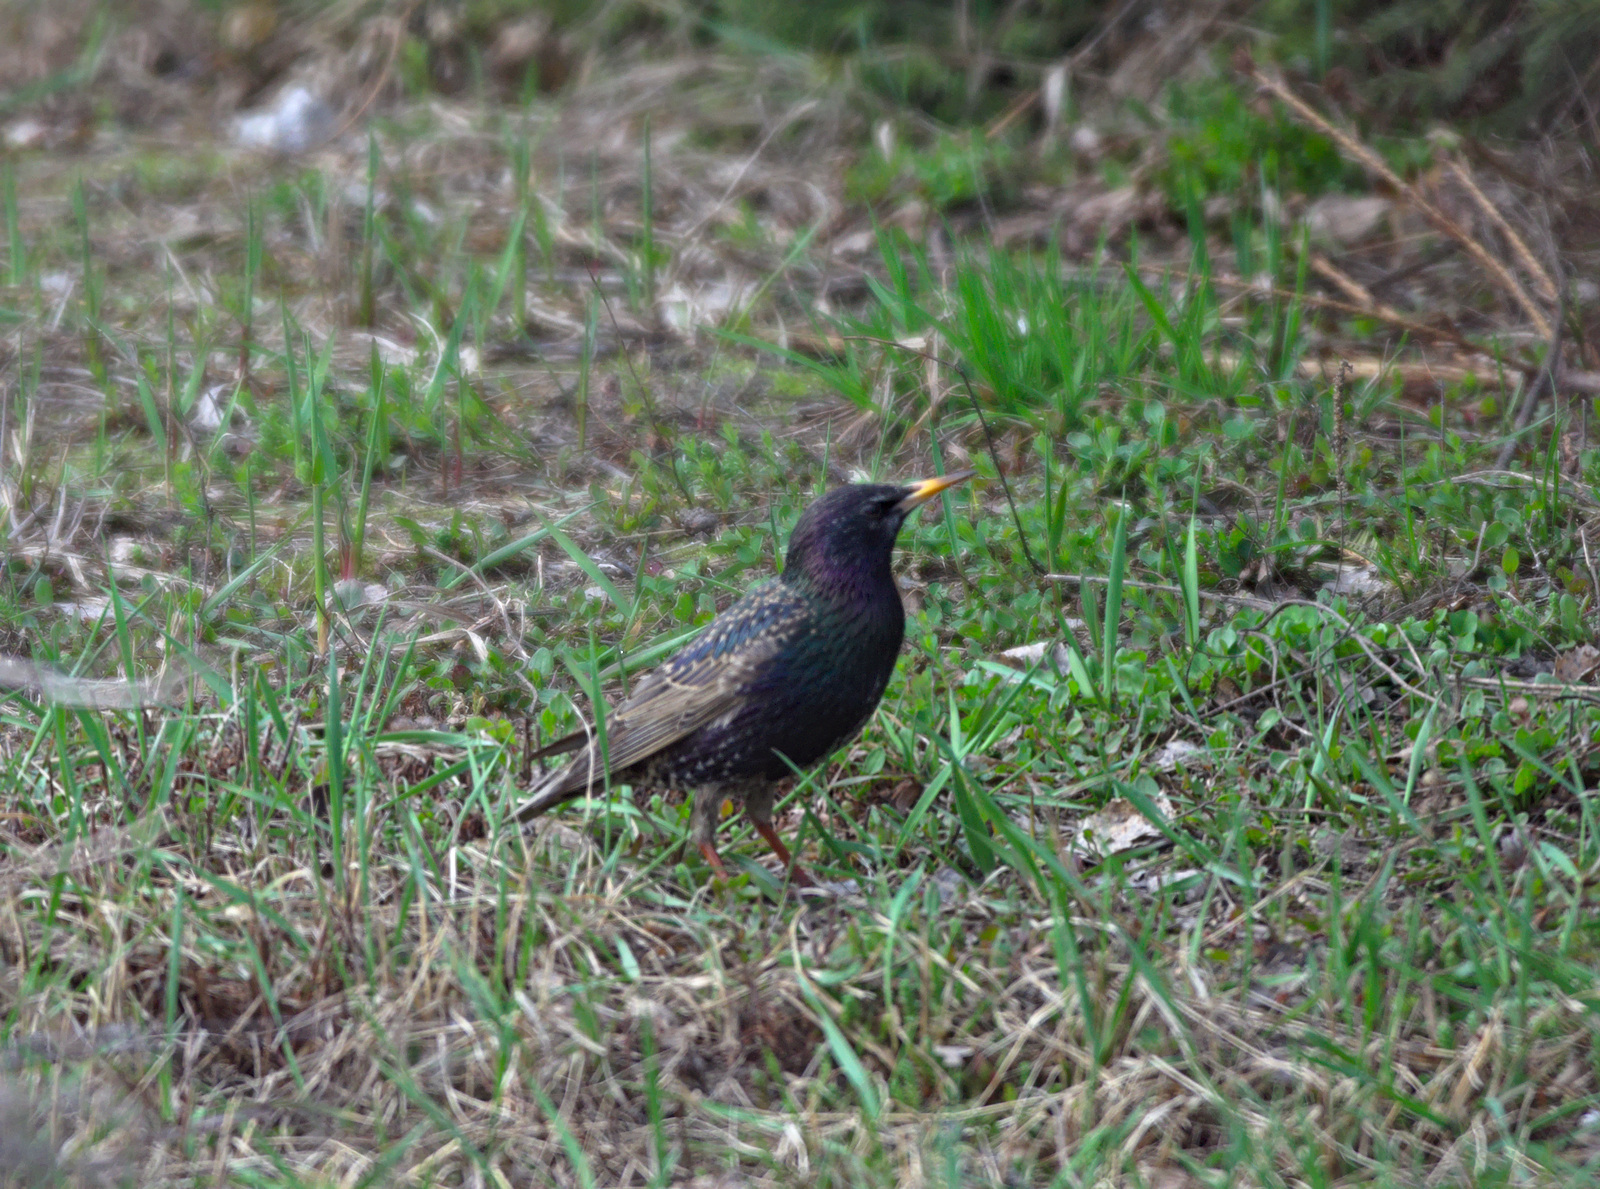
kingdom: Animalia
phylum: Chordata
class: Aves
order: Passeriformes
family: Sturnidae
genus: Sturnus
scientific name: Sturnus vulgaris
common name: Common starling
